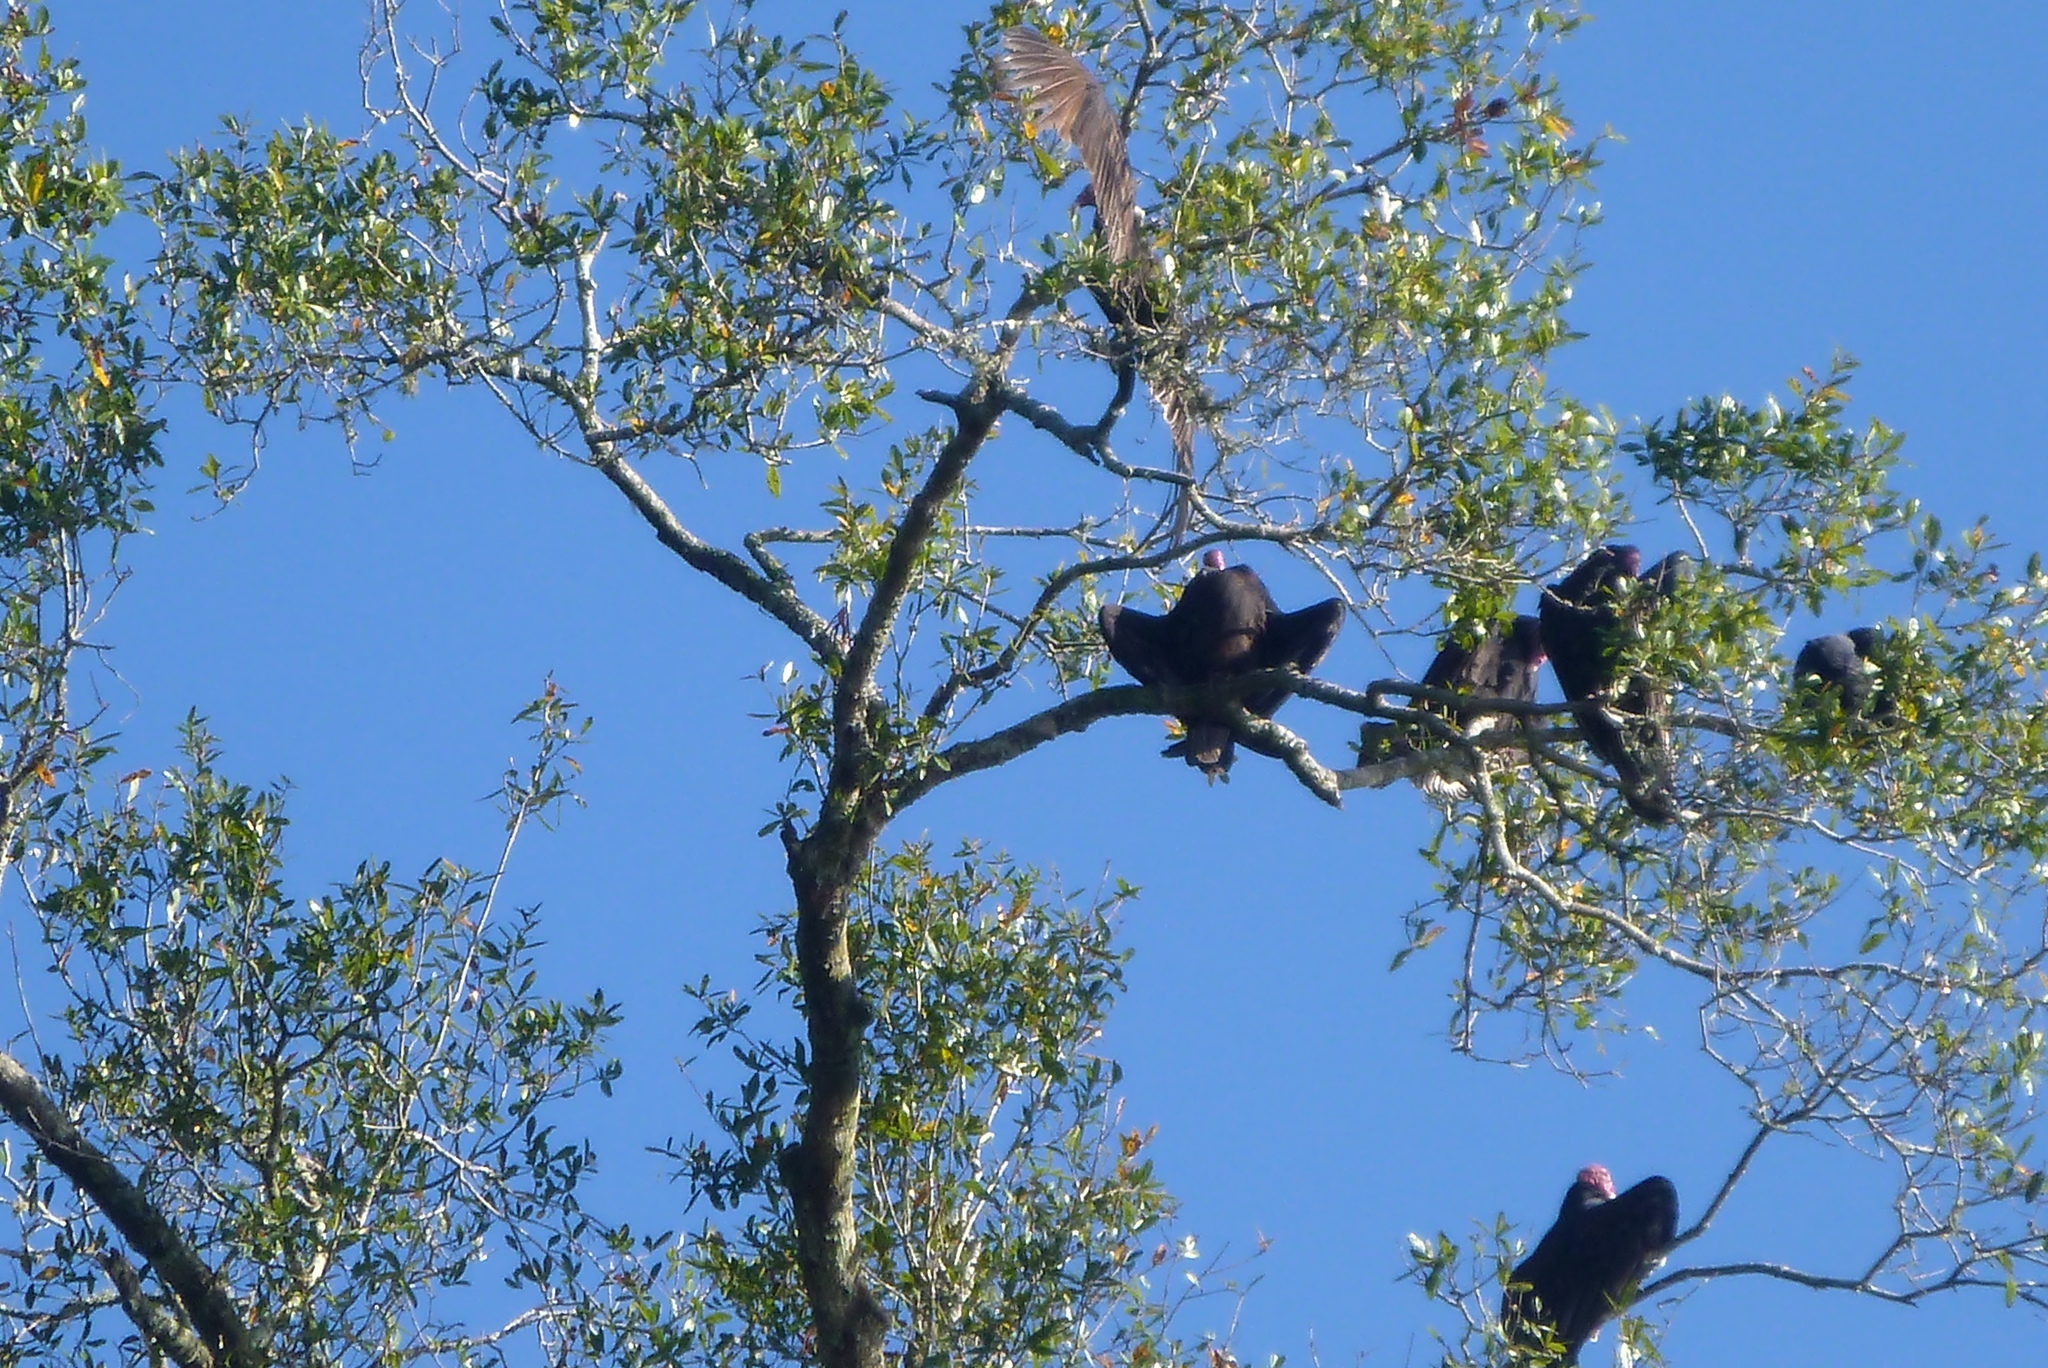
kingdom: Animalia
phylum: Chordata
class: Aves
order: Accipitriformes
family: Cathartidae
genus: Cathartes
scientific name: Cathartes aura
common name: Turkey vulture
